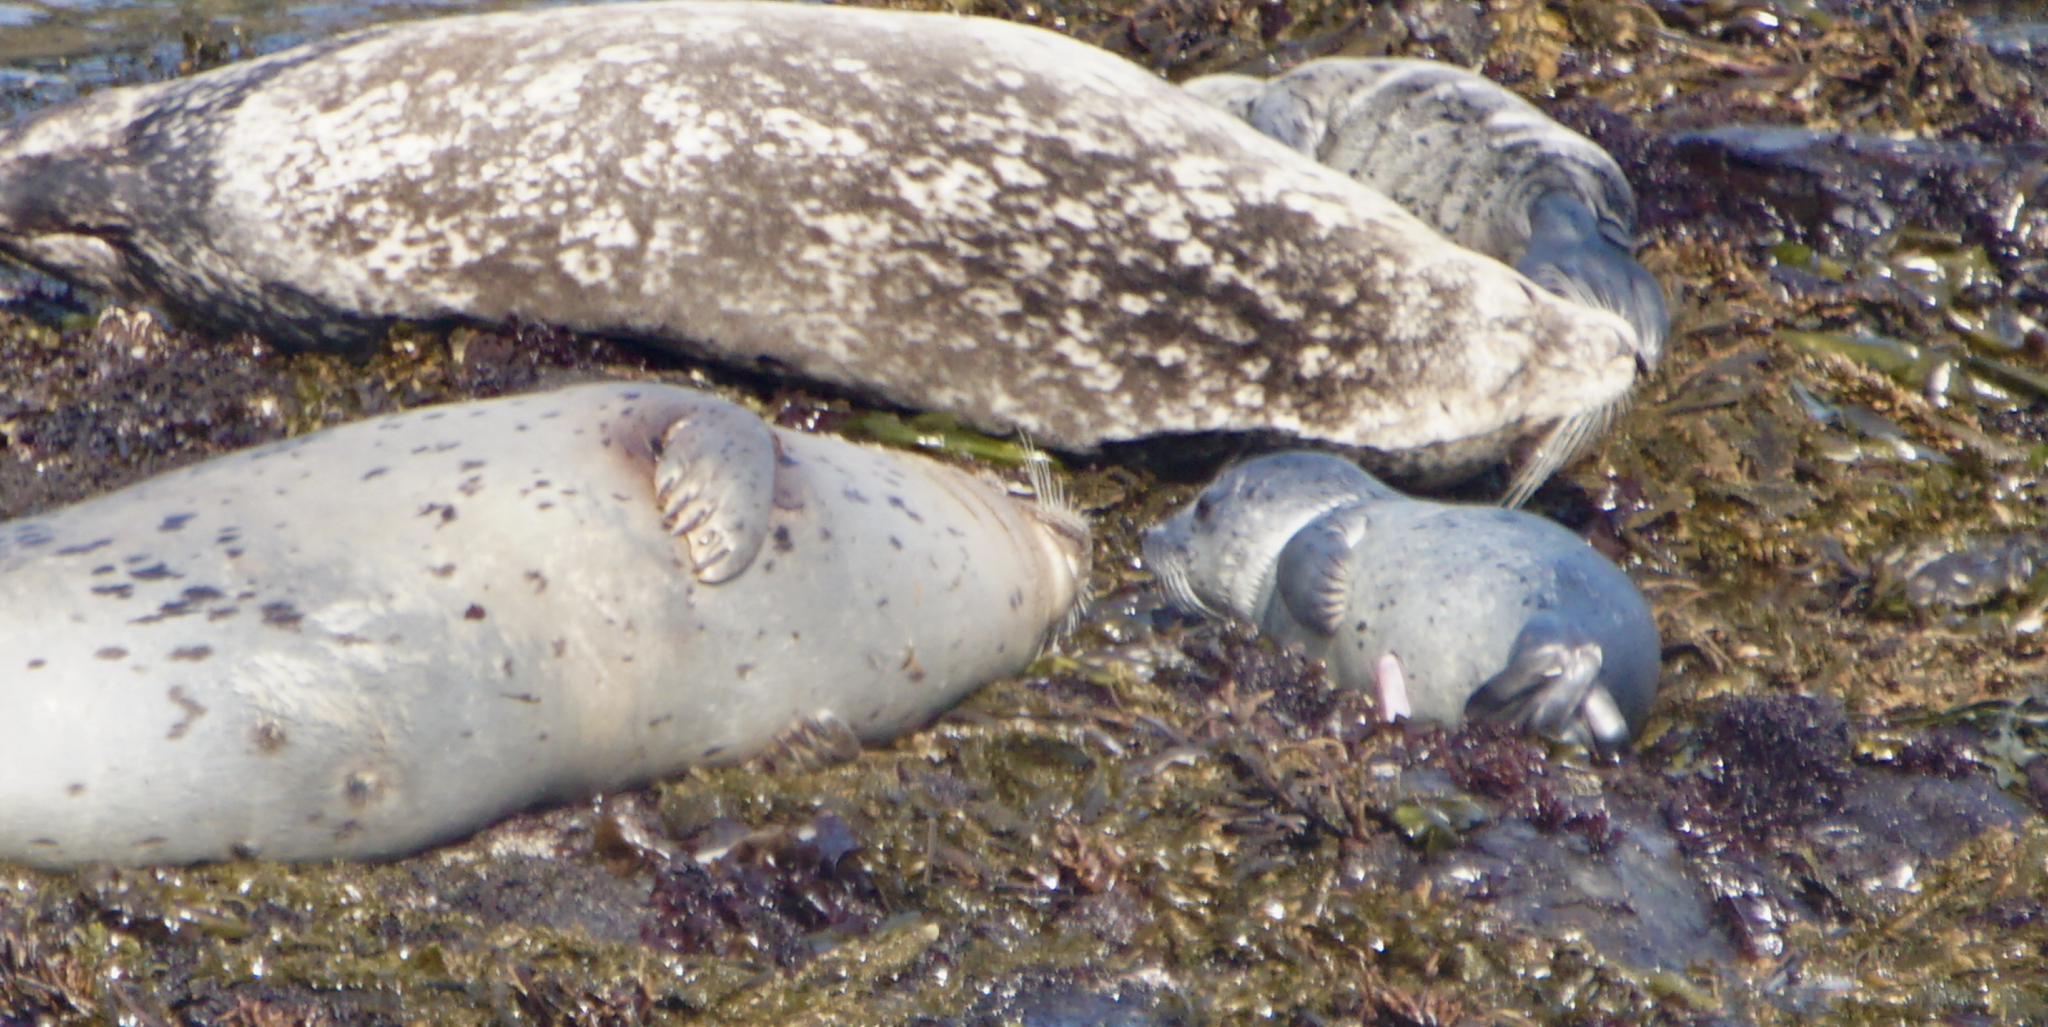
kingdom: Animalia
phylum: Chordata
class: Mammalia
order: Carnivora
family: Phocidae
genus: Phoca
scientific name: Phoca vitulina
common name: Harbor seal
